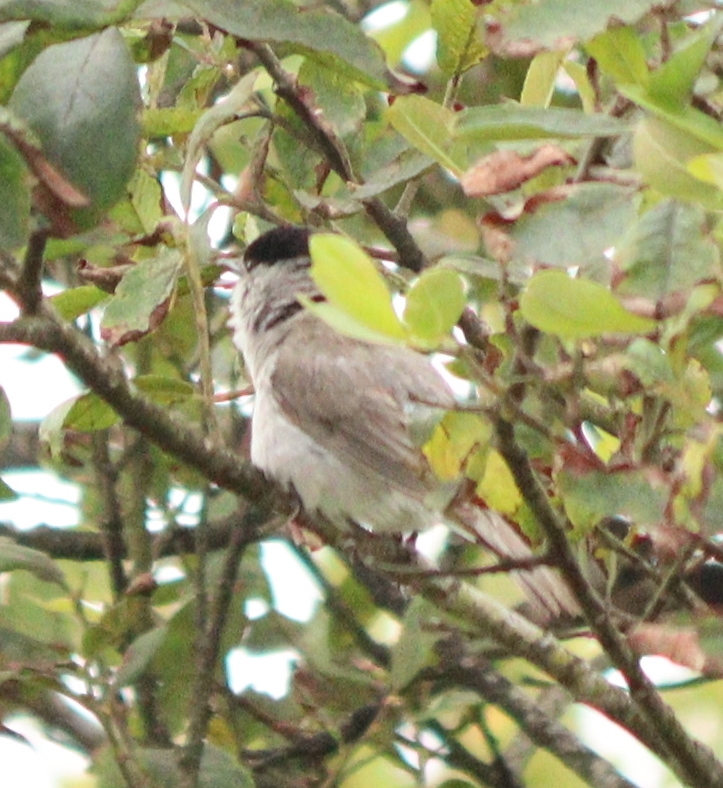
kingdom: Animalia
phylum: Chordata
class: Aves
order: Passeriformes
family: Sylviidae
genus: Sylvia
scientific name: Sylvia atricapilla
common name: Eurasian blackcap
